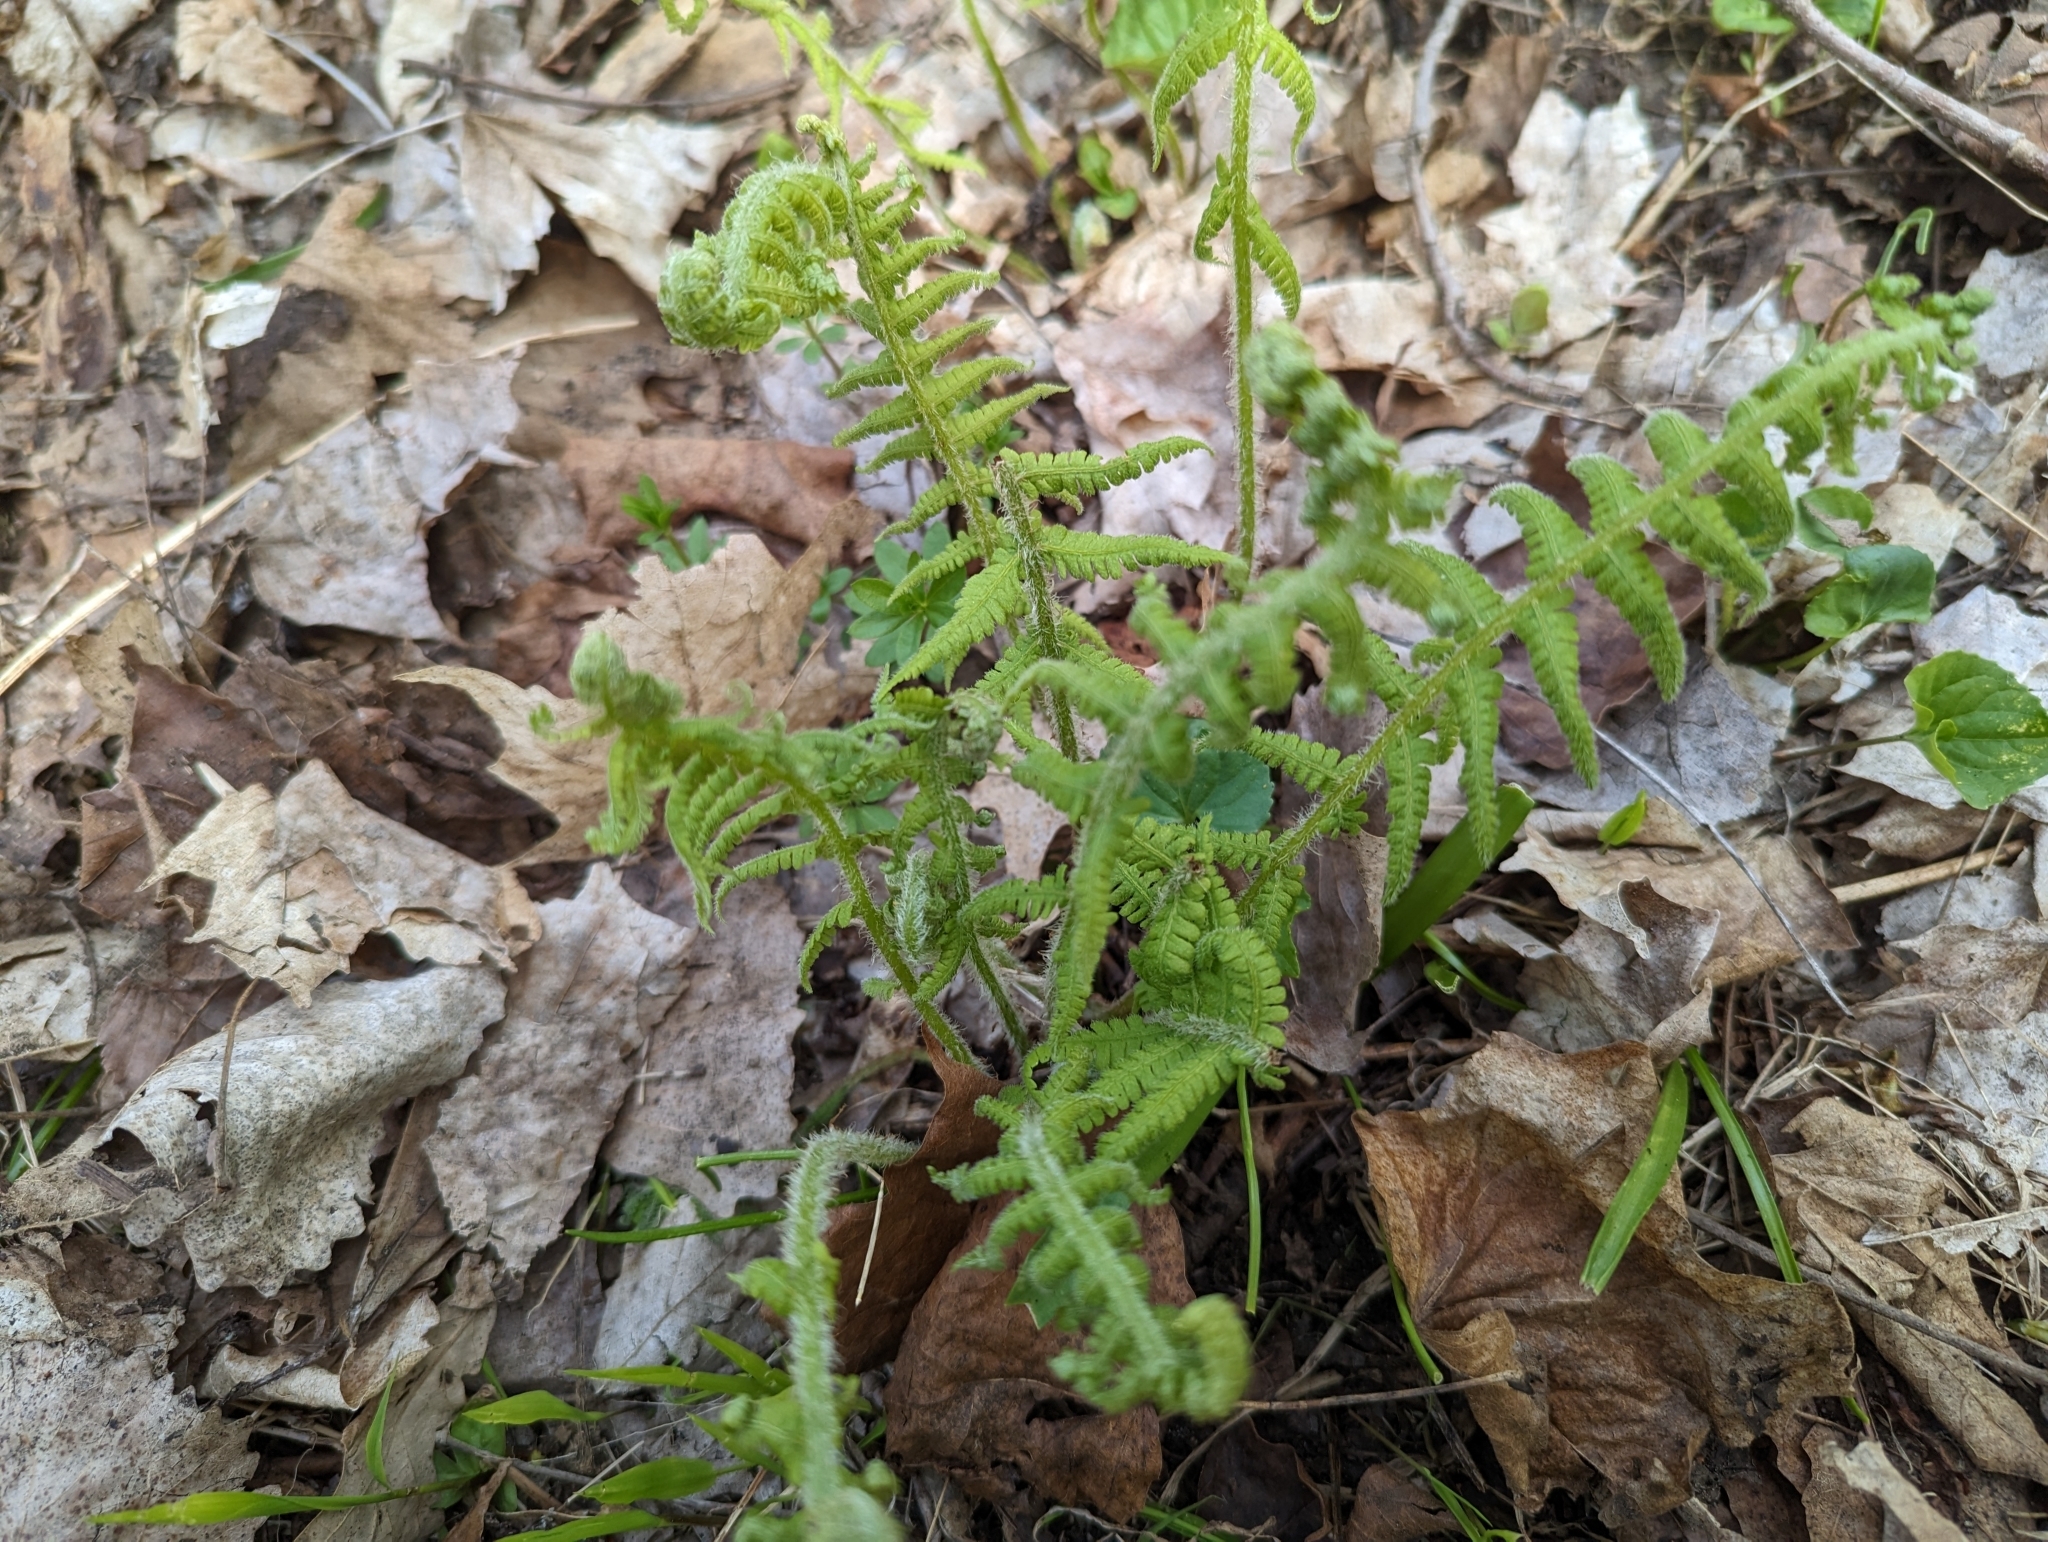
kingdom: Plantae
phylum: Tracheophyta
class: Polypodiopsida
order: Polypodiales
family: Athyriaceae
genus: Deparia
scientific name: Deparia acrostichoides
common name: Silver false spleenwort
